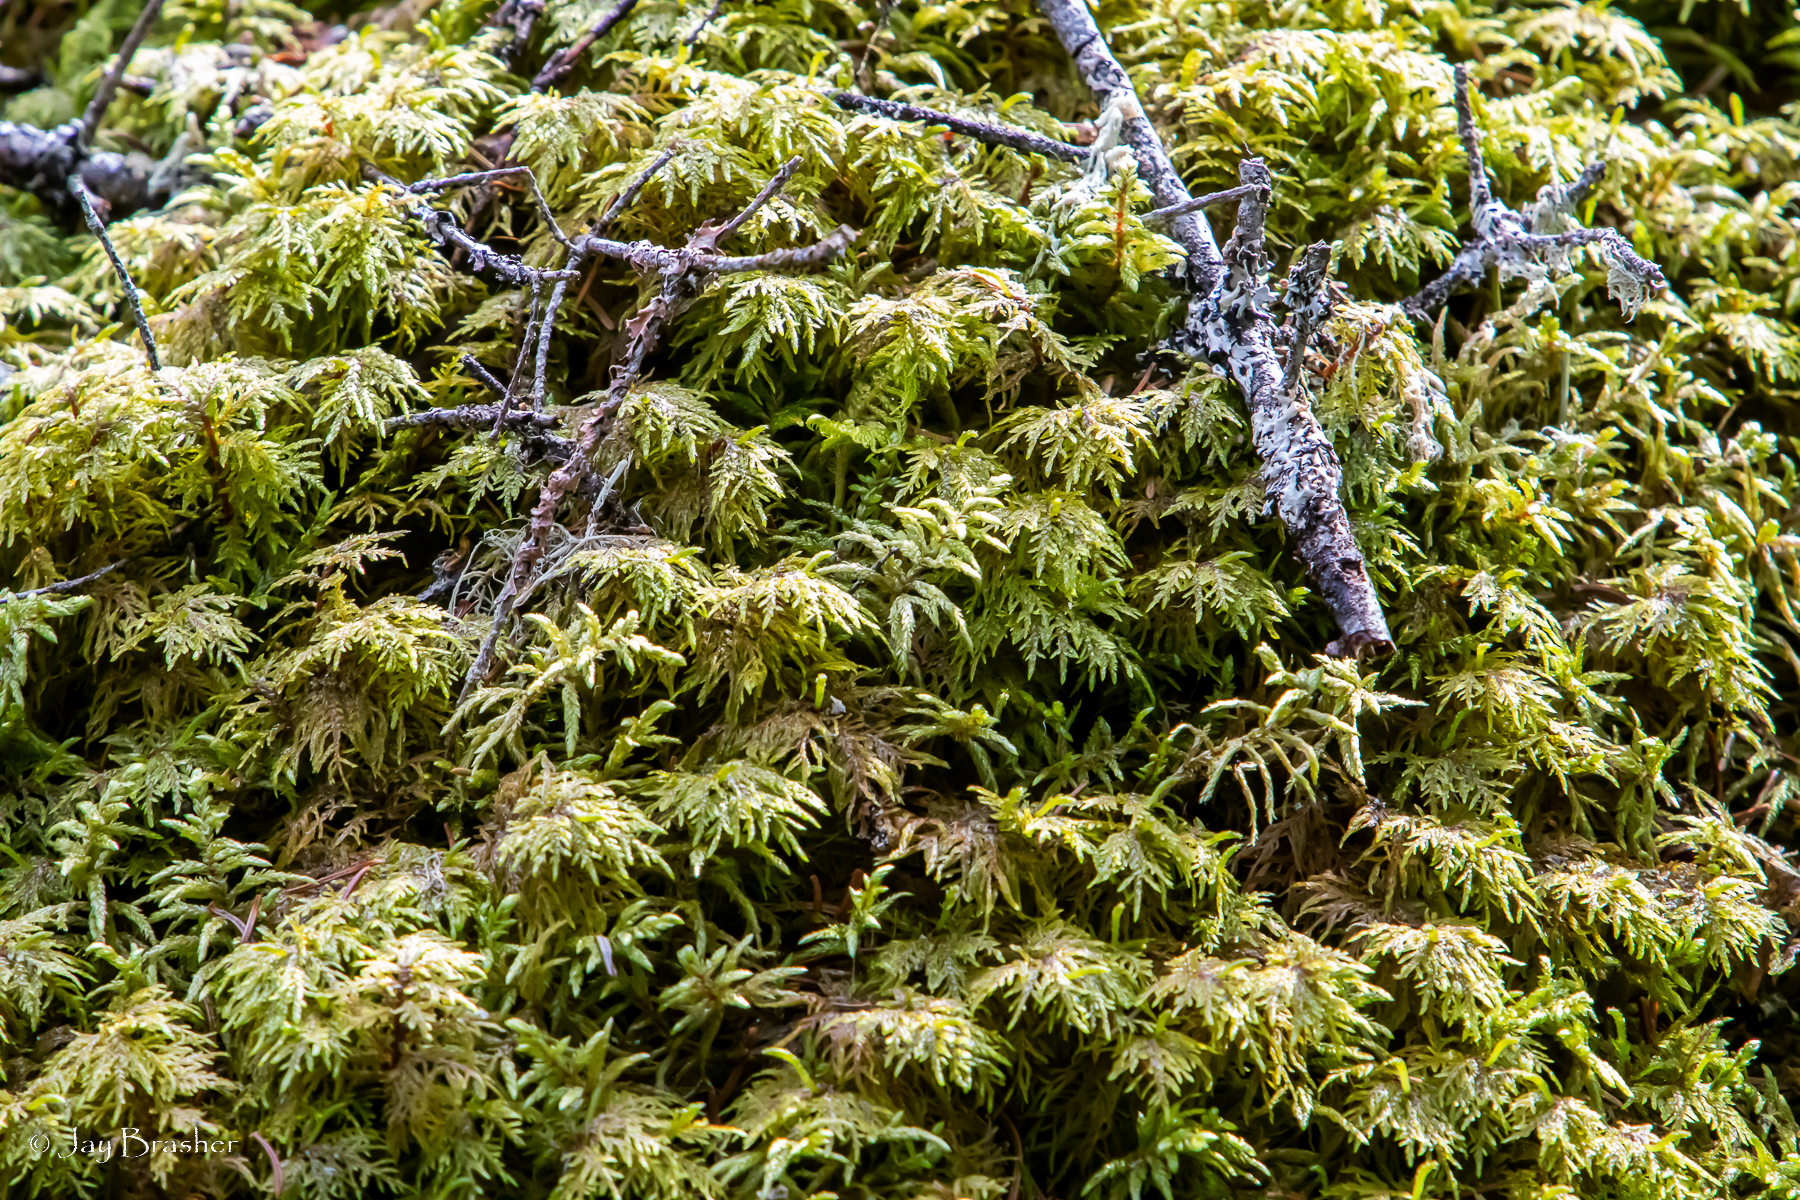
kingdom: Plantae
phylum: Bryophyta
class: Bryopsida
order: Hypnales
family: Hylocomiaceae
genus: Hylocomium
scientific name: Hylocomium splendens
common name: Stairstep moss
